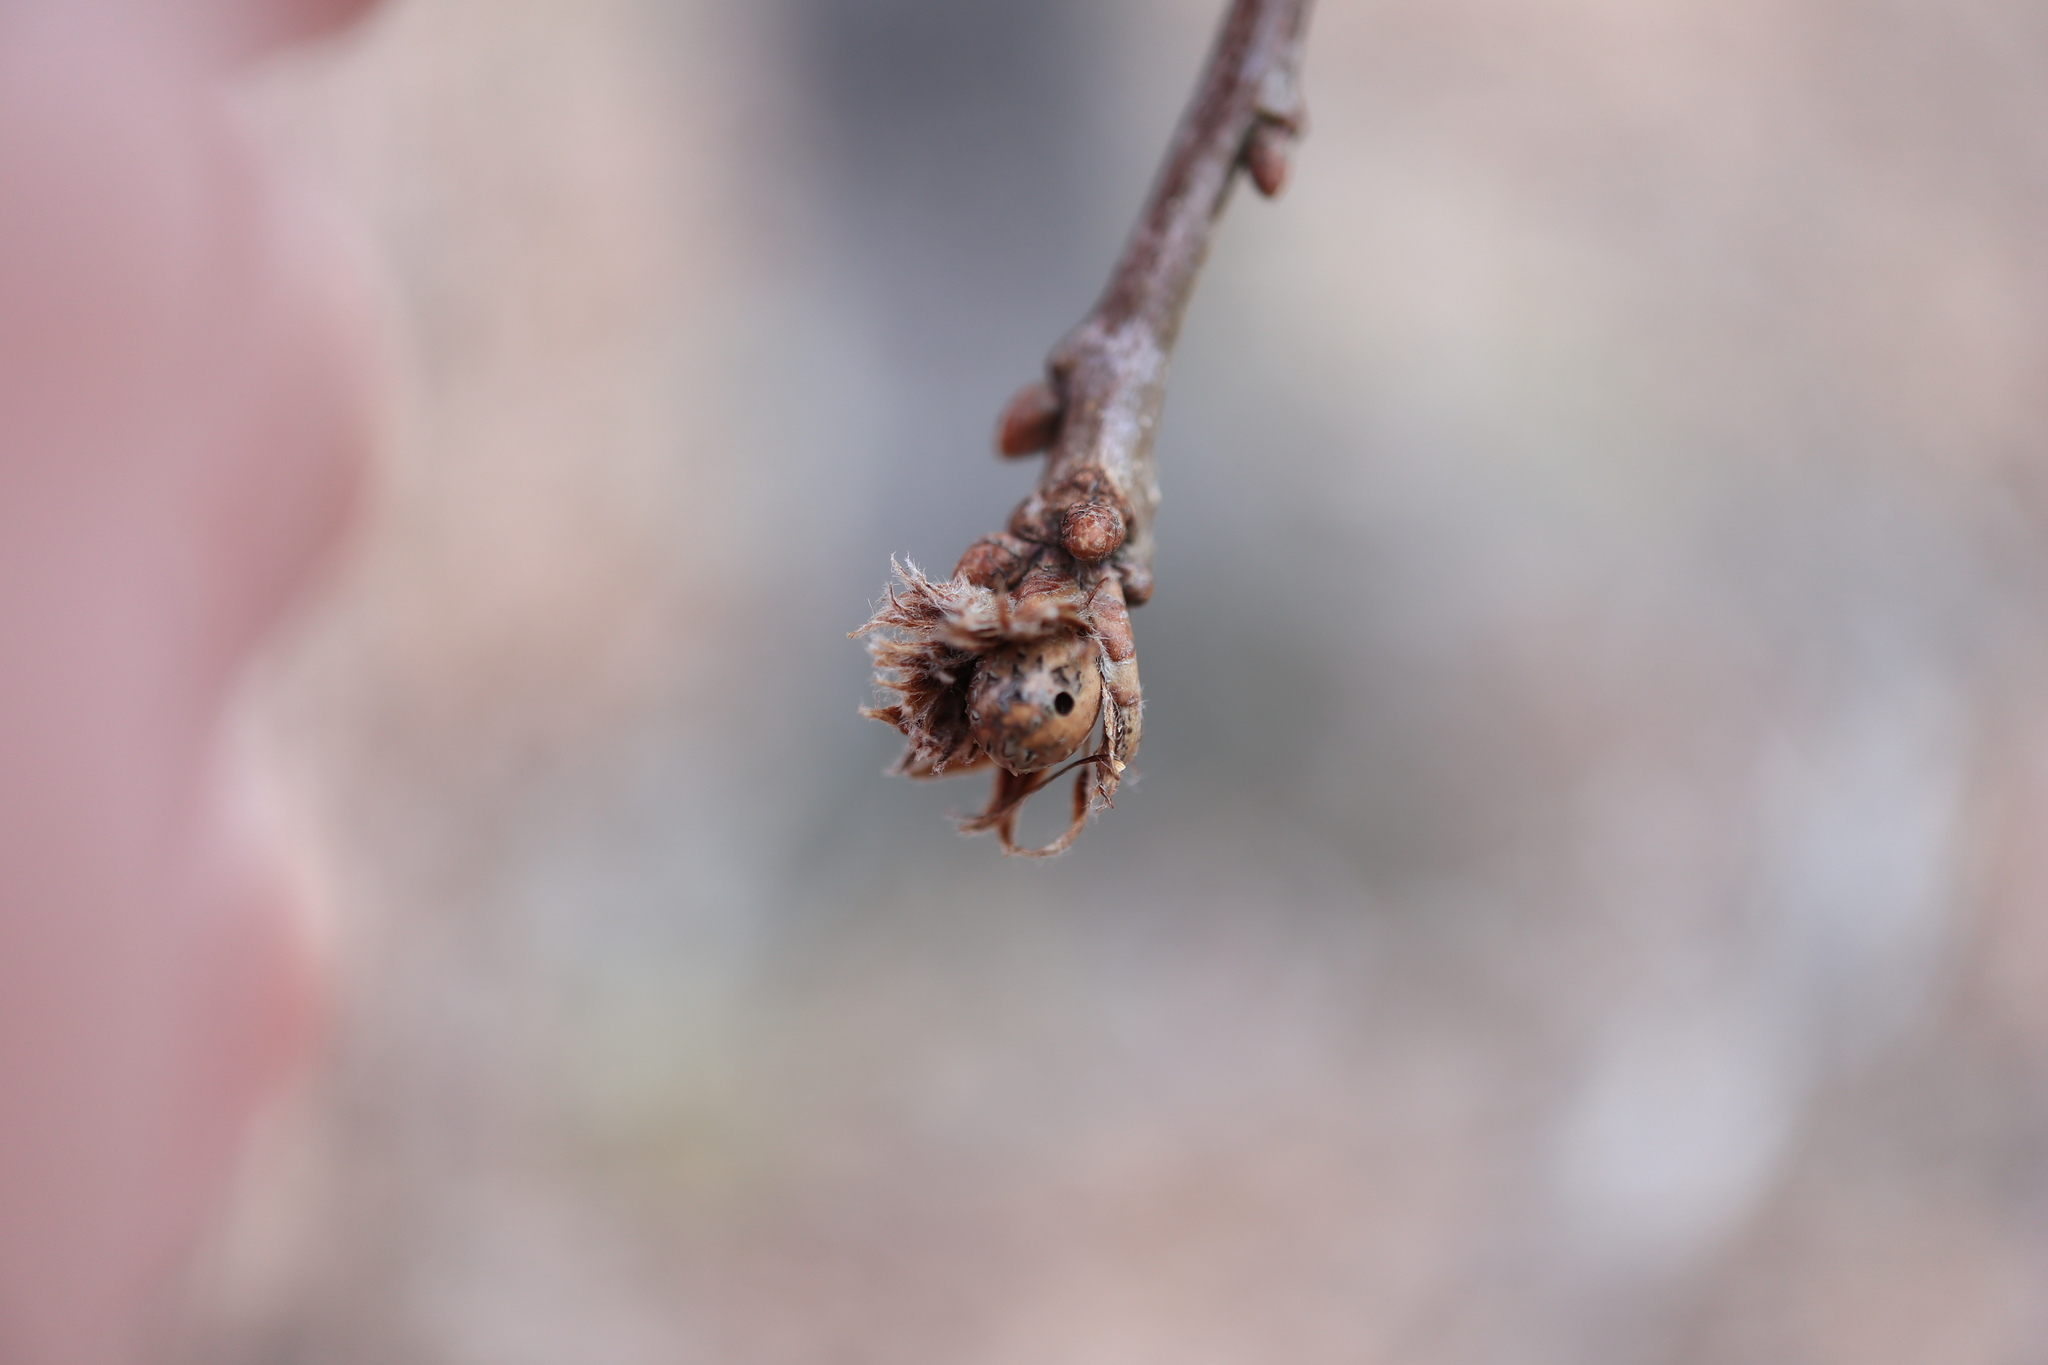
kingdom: Animalia
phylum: Arthropoda
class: Insecta
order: Hymenoptera
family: Cynipidae
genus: Andricus
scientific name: Andricus
